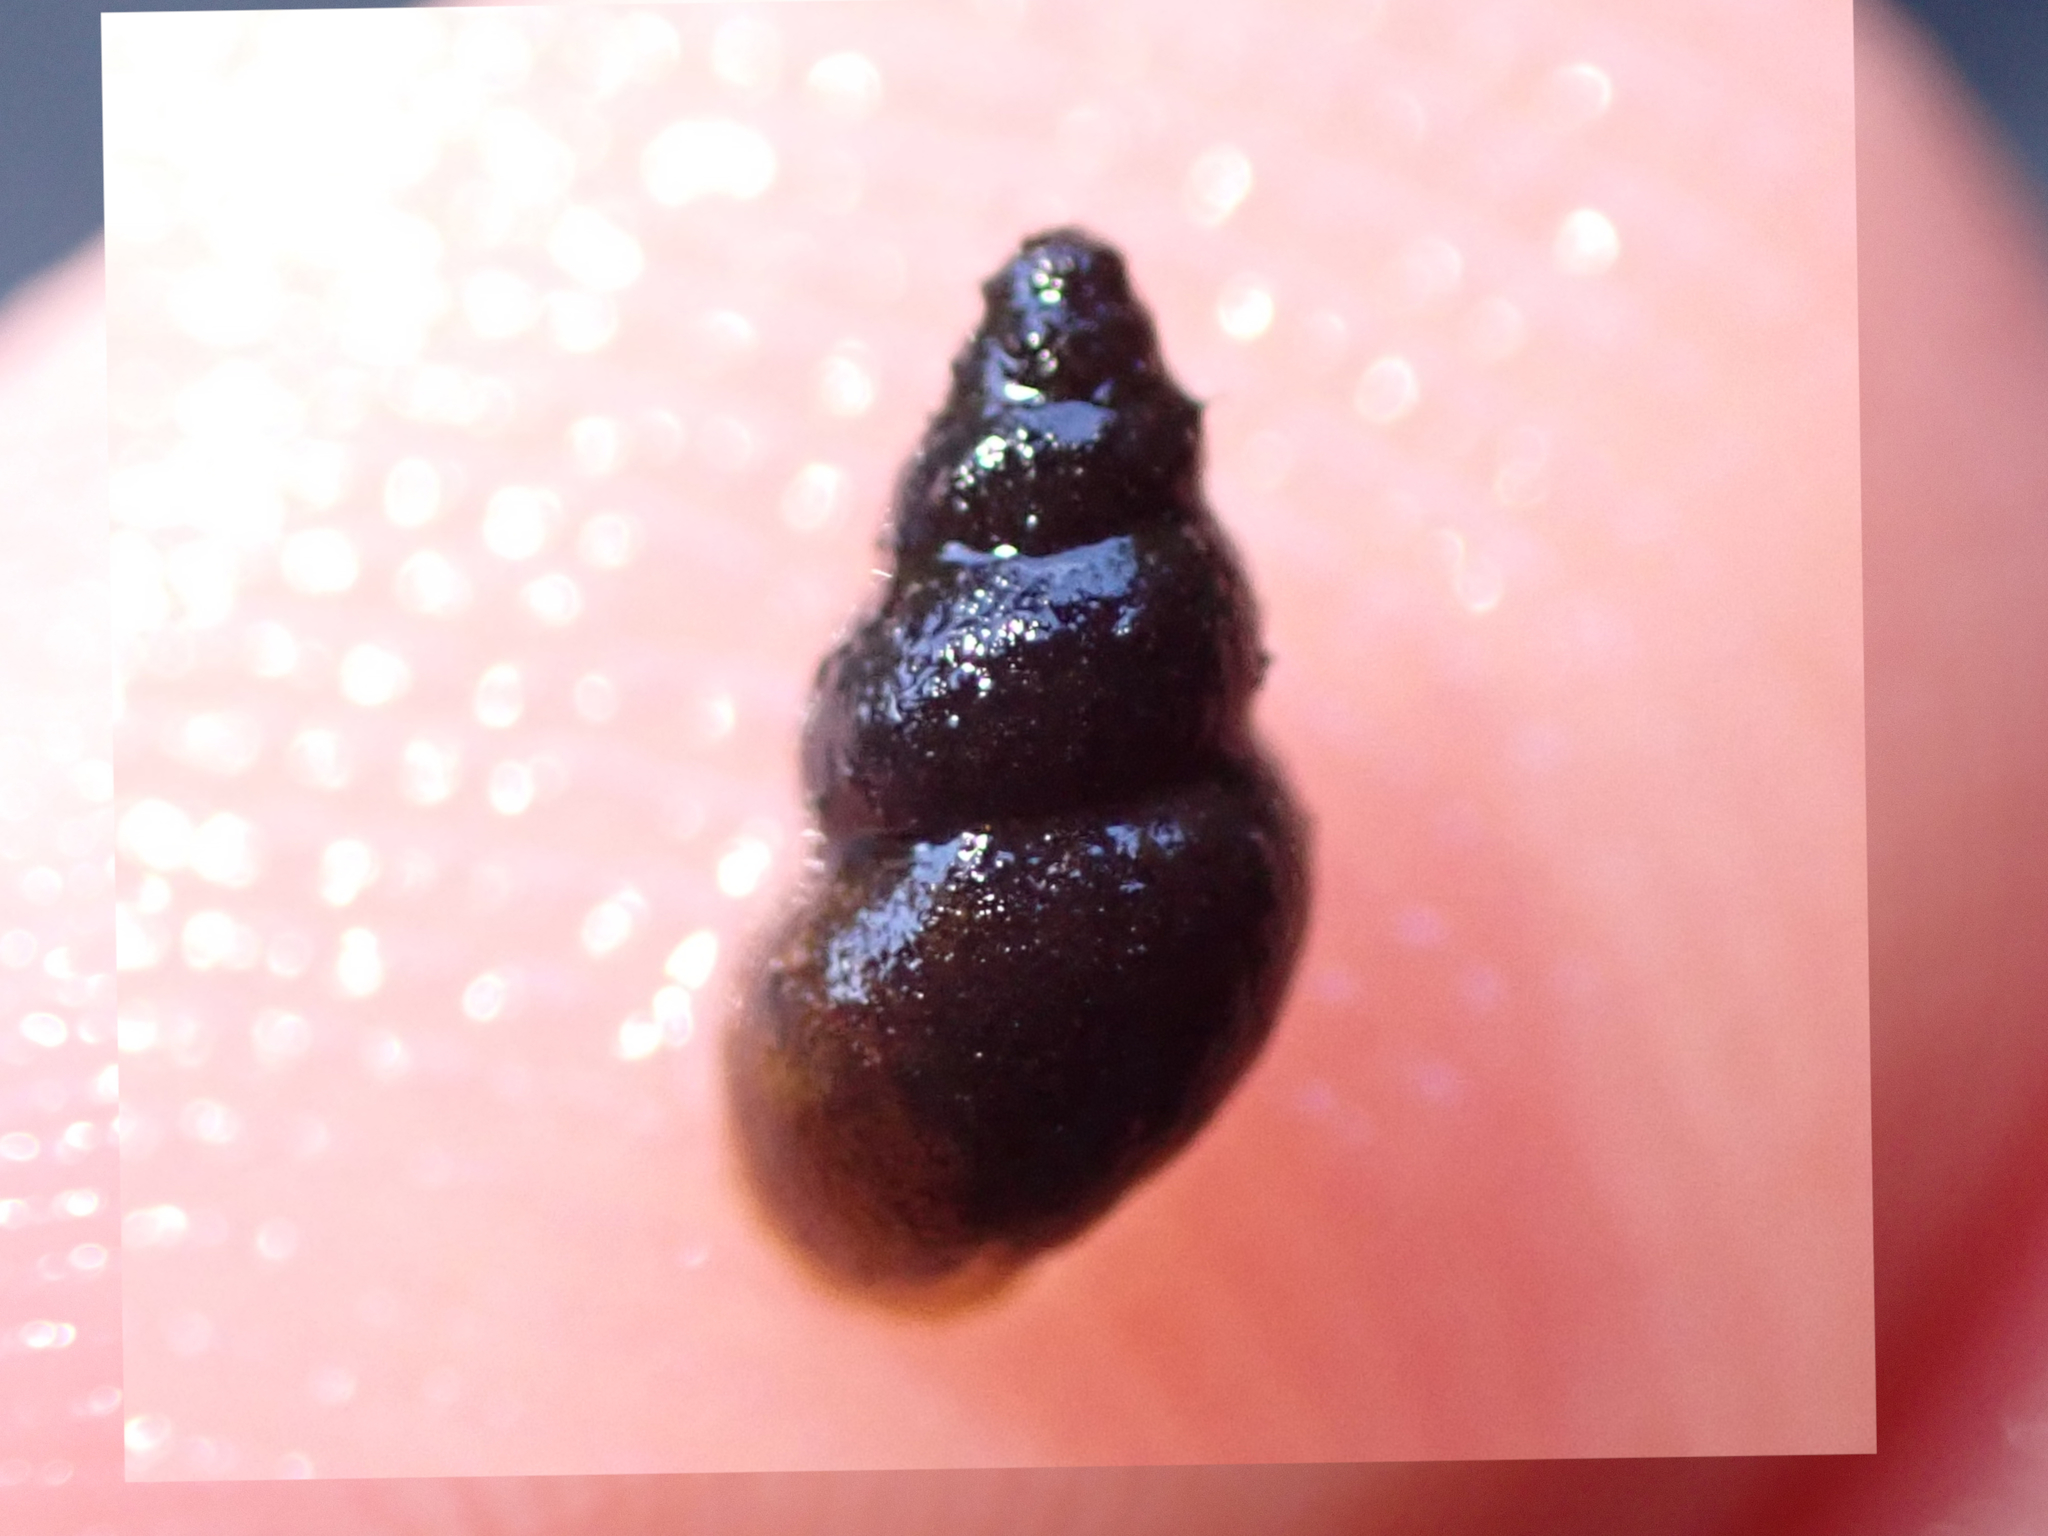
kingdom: Animalia
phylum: Mollusca
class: Gastropoda
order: Littorinimorpha
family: Tateidae
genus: Potamopyrgus
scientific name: Potamopyrgus antipodarum
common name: Jenkins' spire snail
